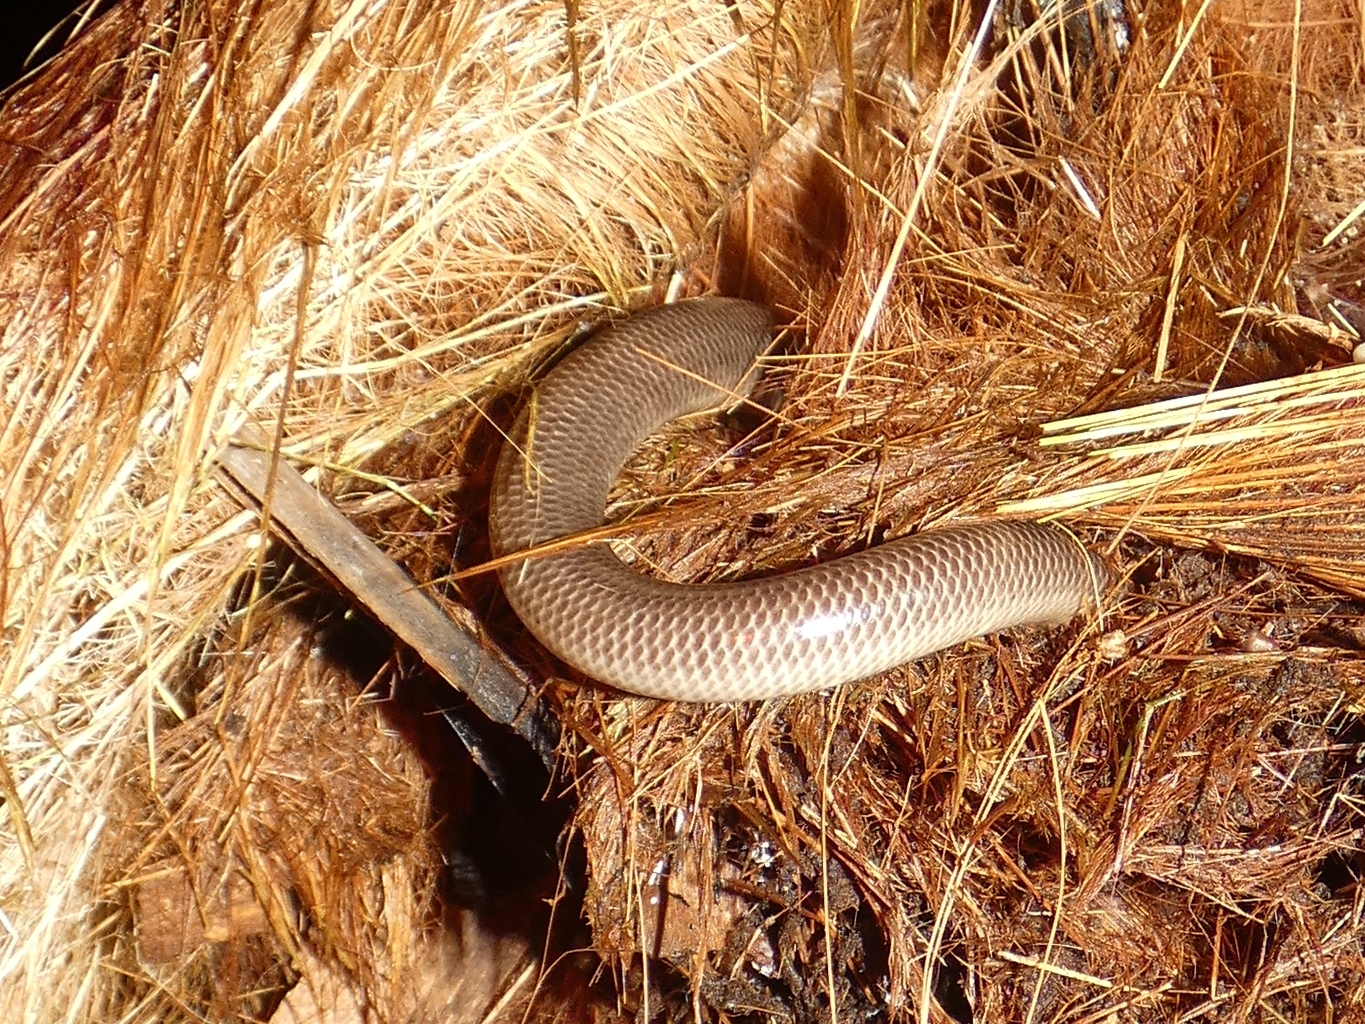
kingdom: Animalia
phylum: Chordata
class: Squamata
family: Typhlopidae
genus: Anilios
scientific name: Anilios torresianus
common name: Torres strait blindsnake
